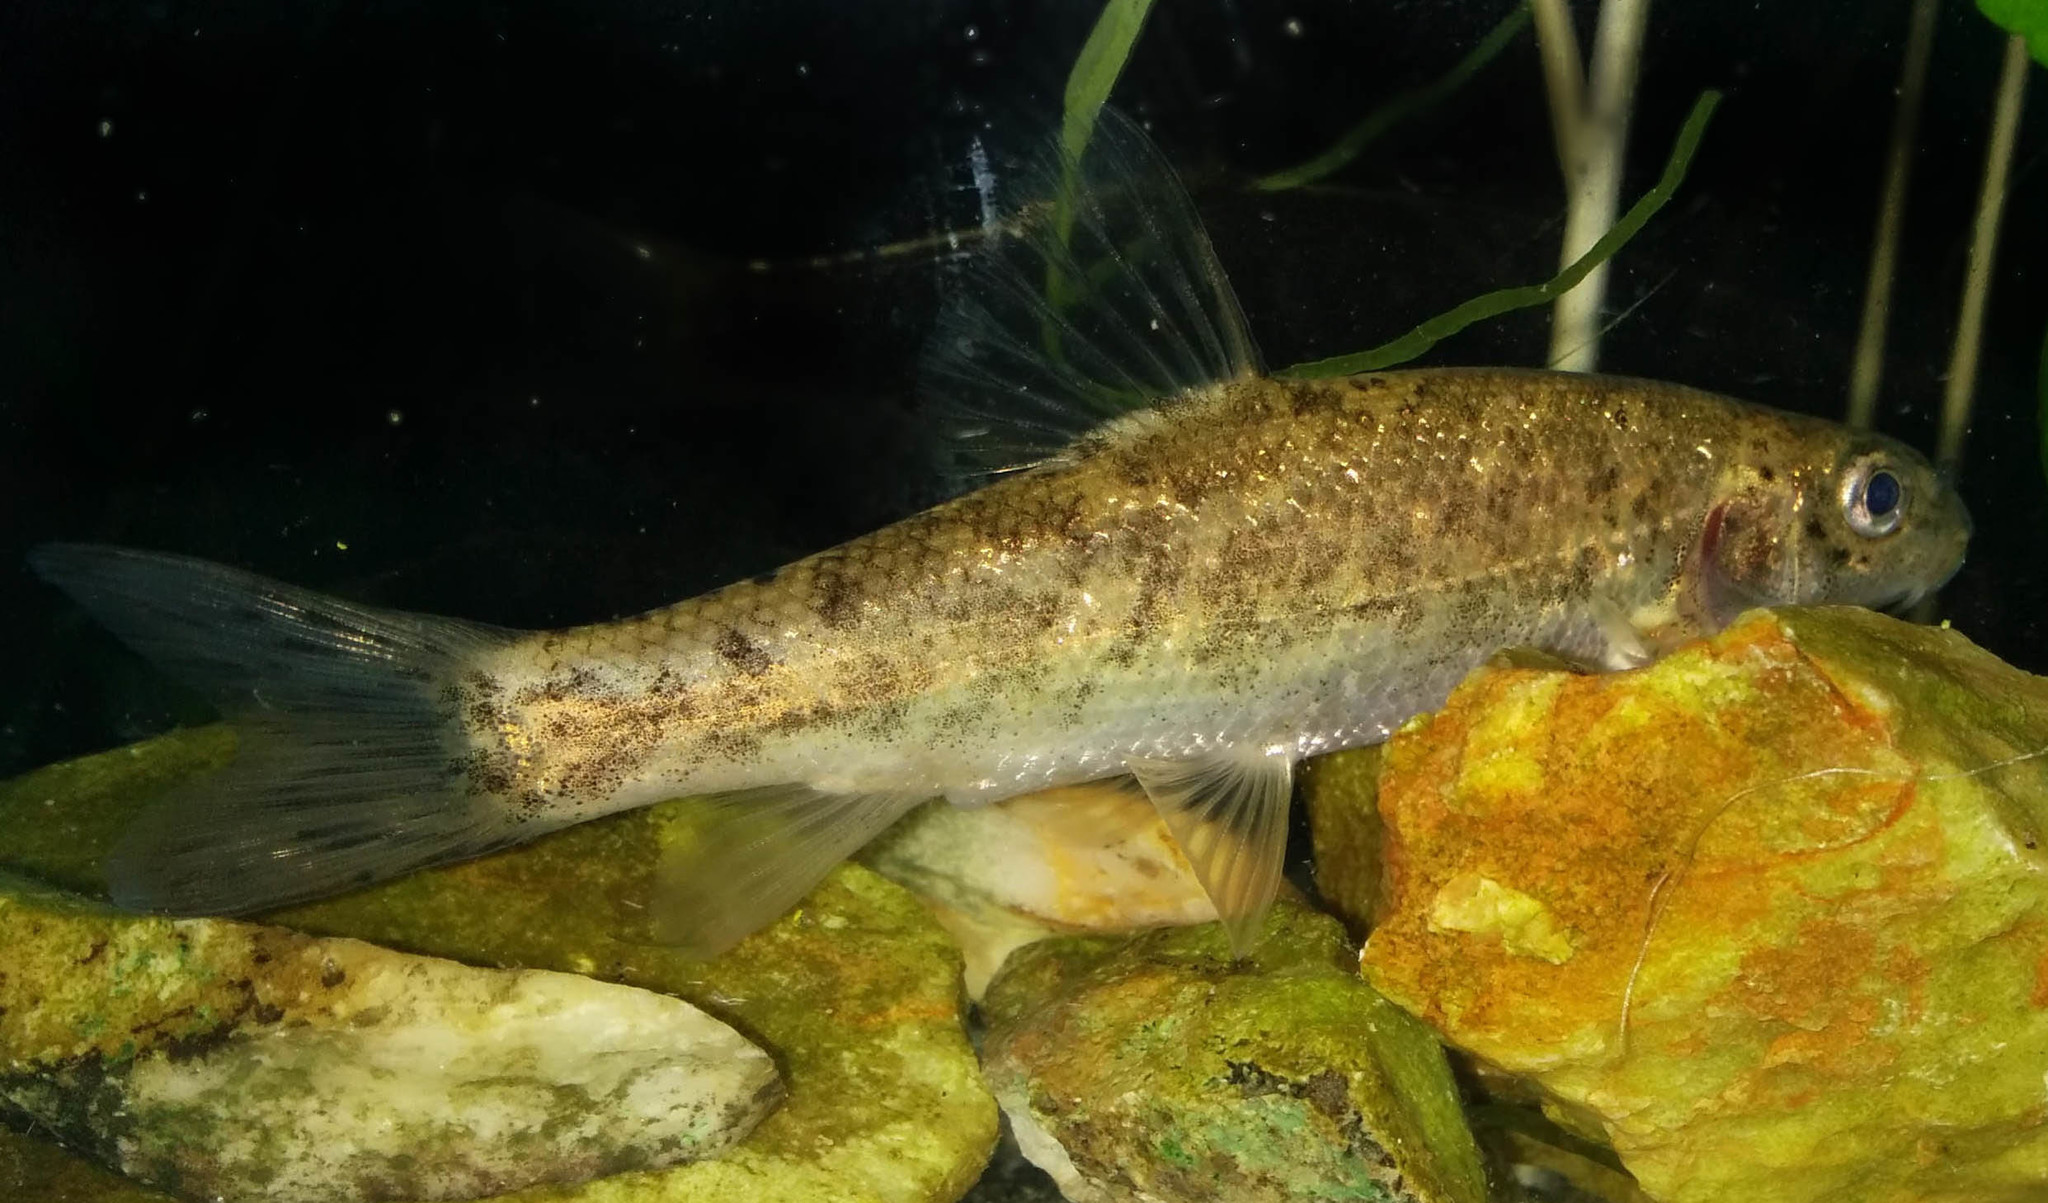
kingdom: Animalia
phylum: Chordata
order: Cypriniformes
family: Cyprinidae
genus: Barbus
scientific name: Barbus meridionalis
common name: Mediterranean barbel
